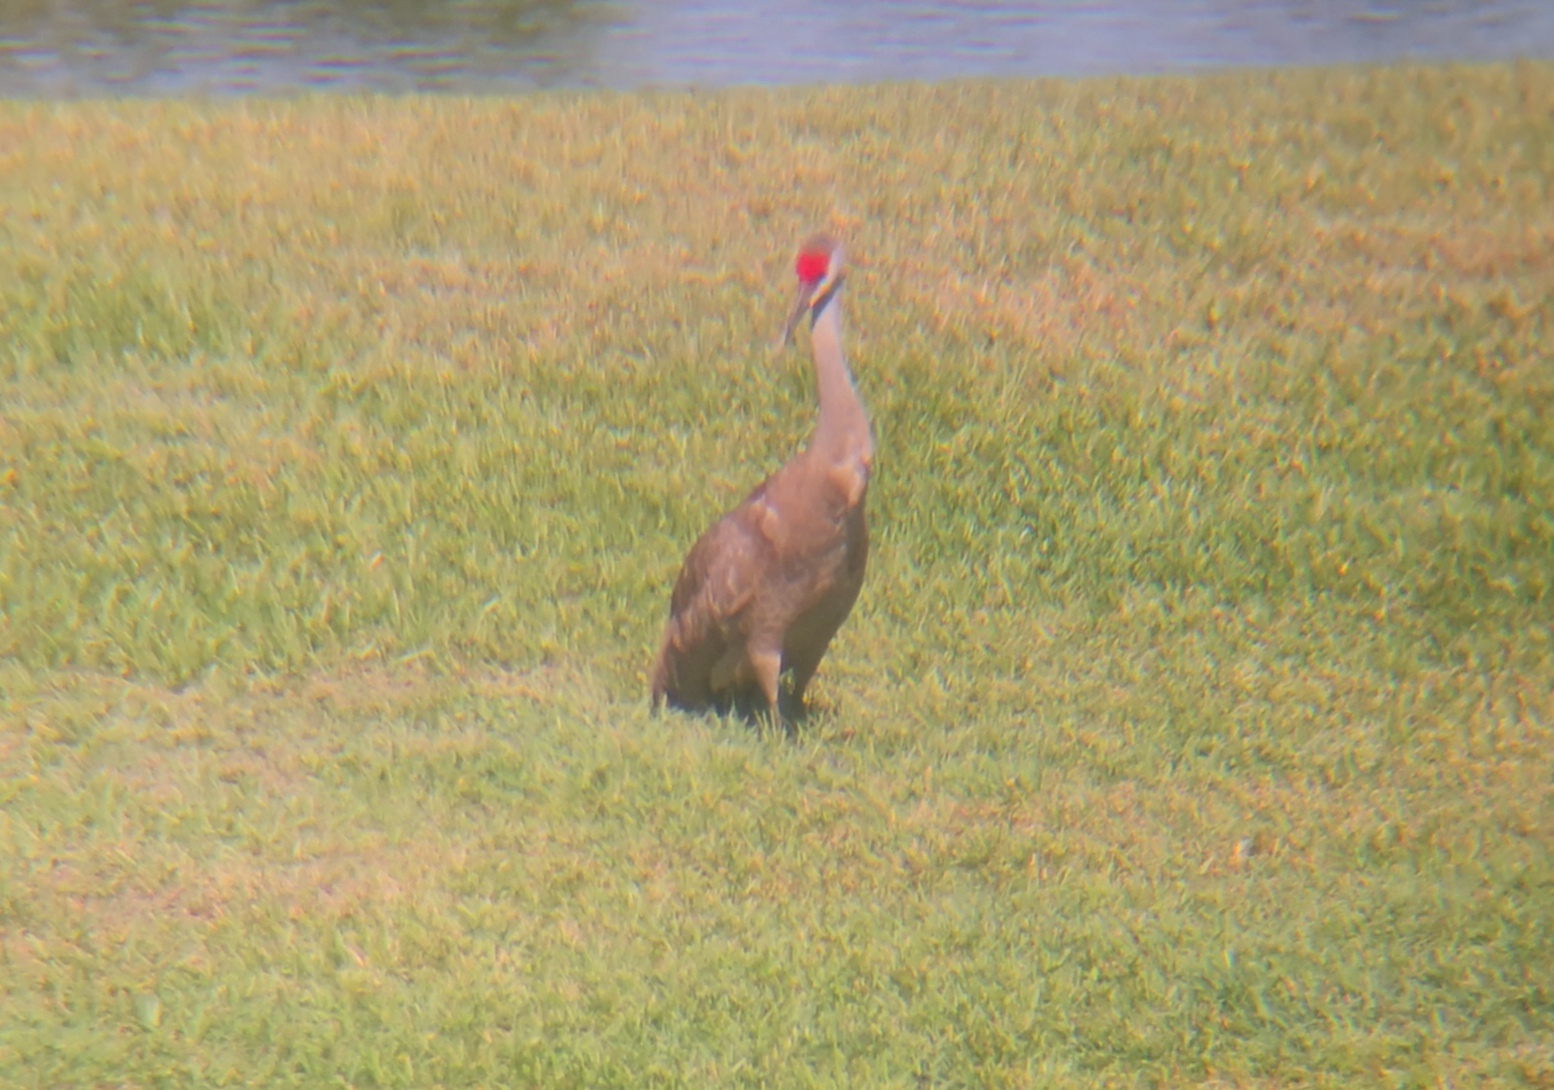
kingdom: Animalia
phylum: Chordata
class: Aves
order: Gruiformes
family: Gruidae
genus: Grus
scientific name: Grus canadensis
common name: Sandhill crane
